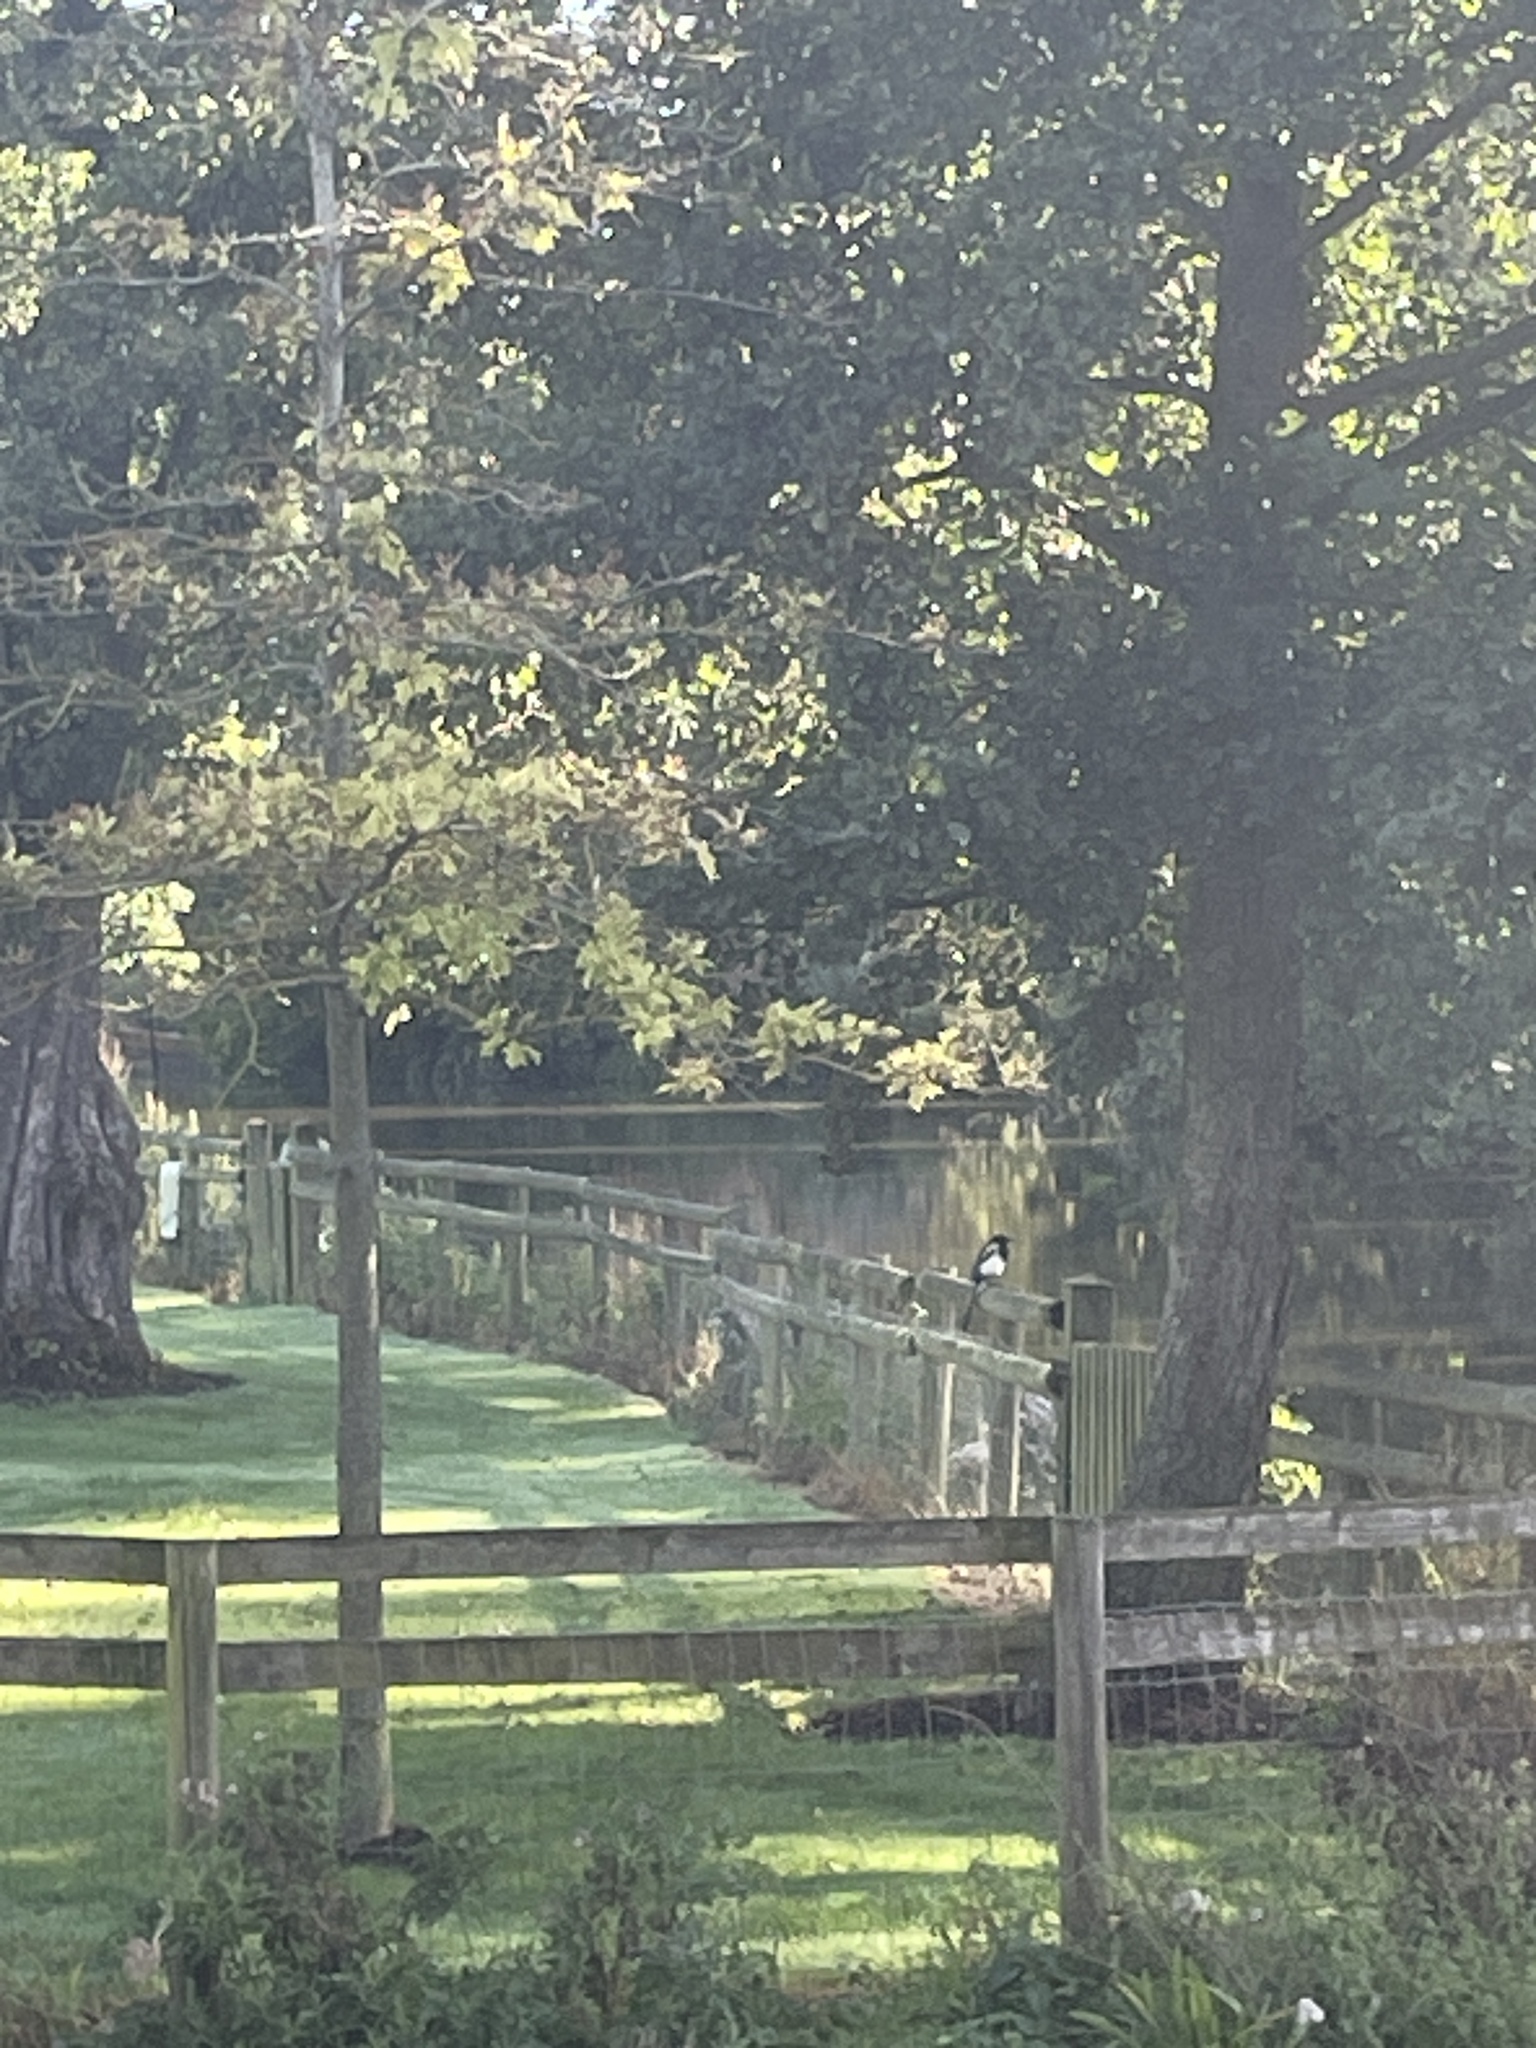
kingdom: Animalia
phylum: Chordata
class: Aves
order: Passeriformes
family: Corvidae
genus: Pica
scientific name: Pica pica
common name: Eurasian magpie
